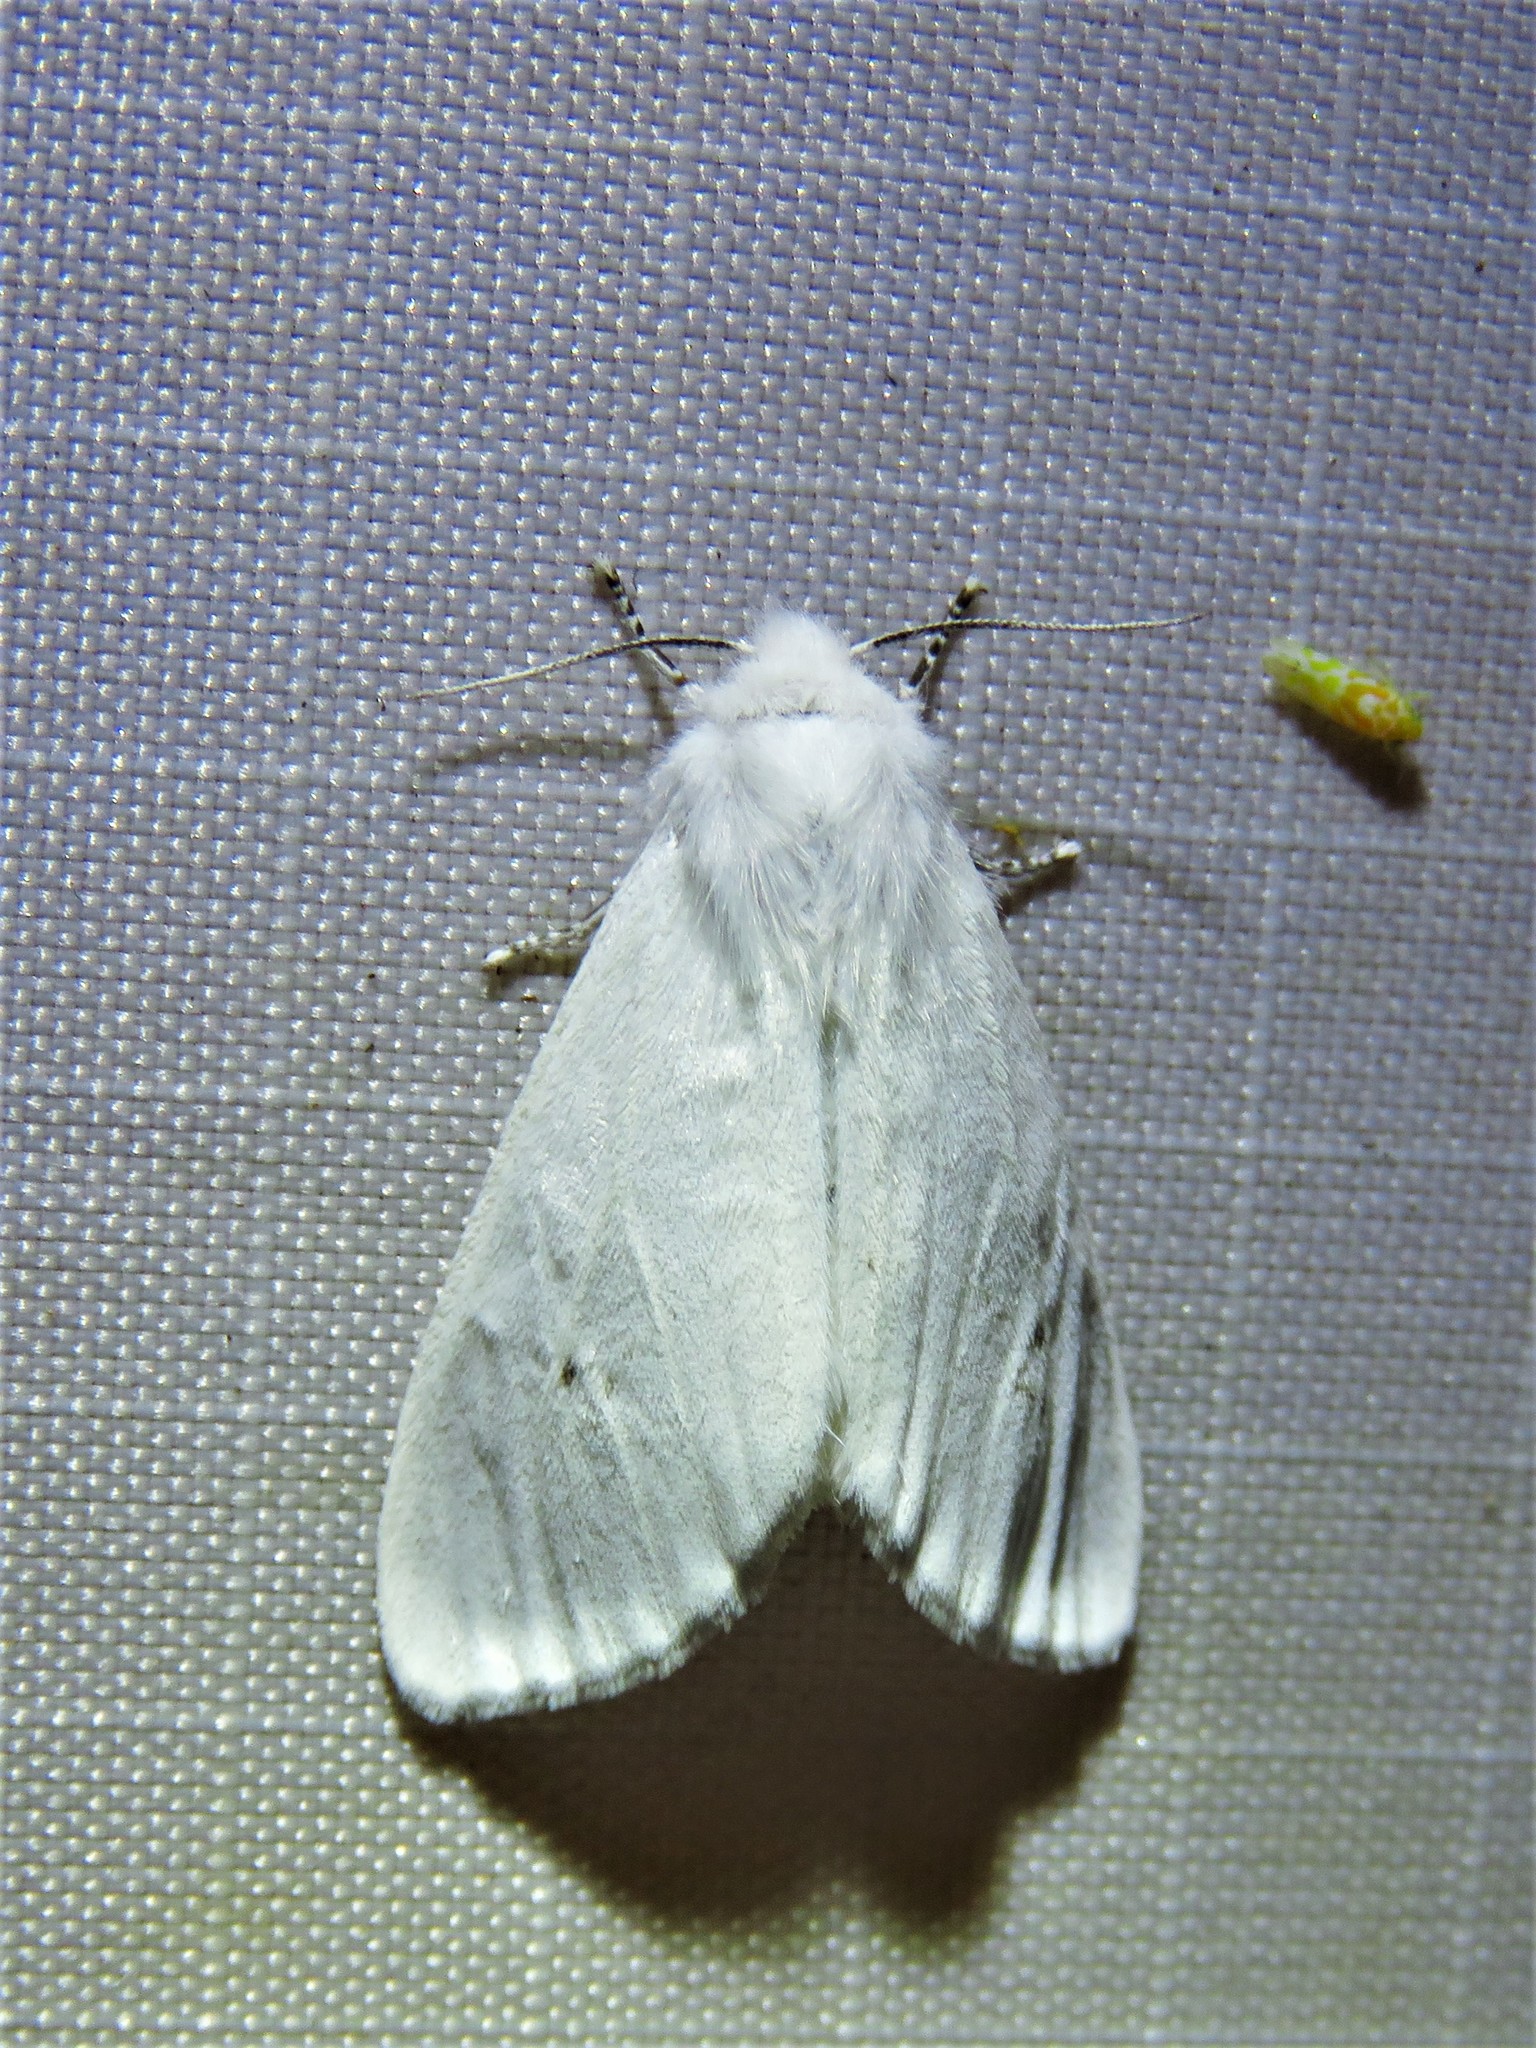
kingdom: Animalia
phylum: Arthropoda
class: Insecta
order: Lepidoptera
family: Erebidae
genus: Spilosoma
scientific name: Spilosoma virginica
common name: Virginia tiger moth
